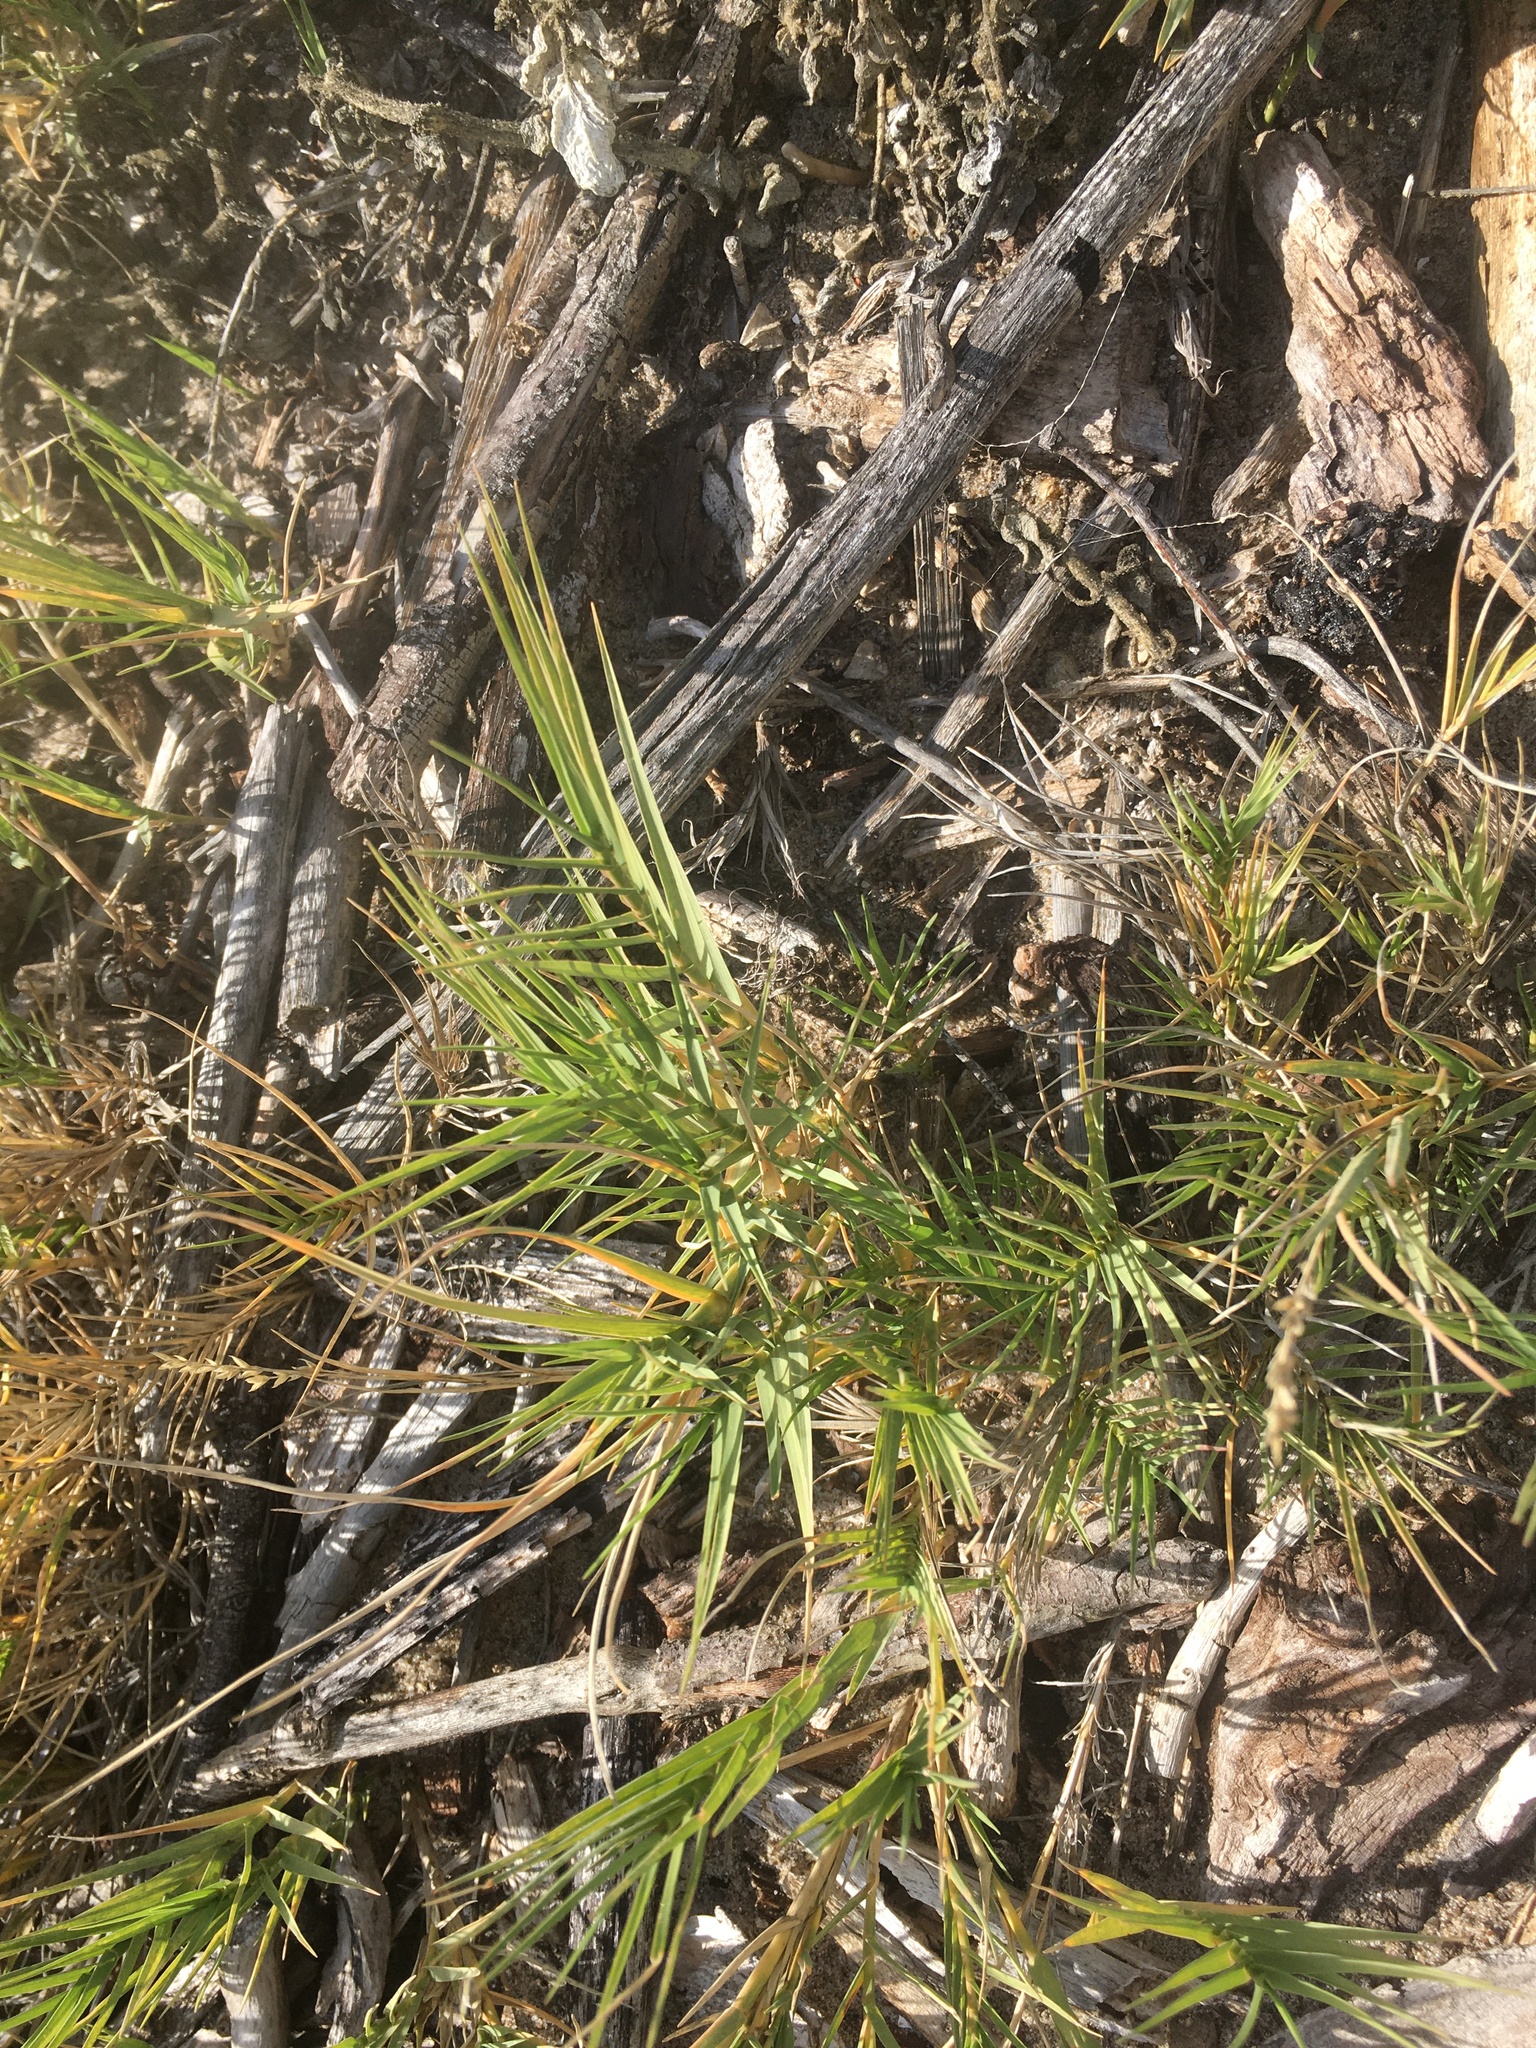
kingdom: Plantae
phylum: Tracheophyta
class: Liliopsida
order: Poales
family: Poaceae
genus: Distichlis
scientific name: Distichlis spicata
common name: Saltgrass
